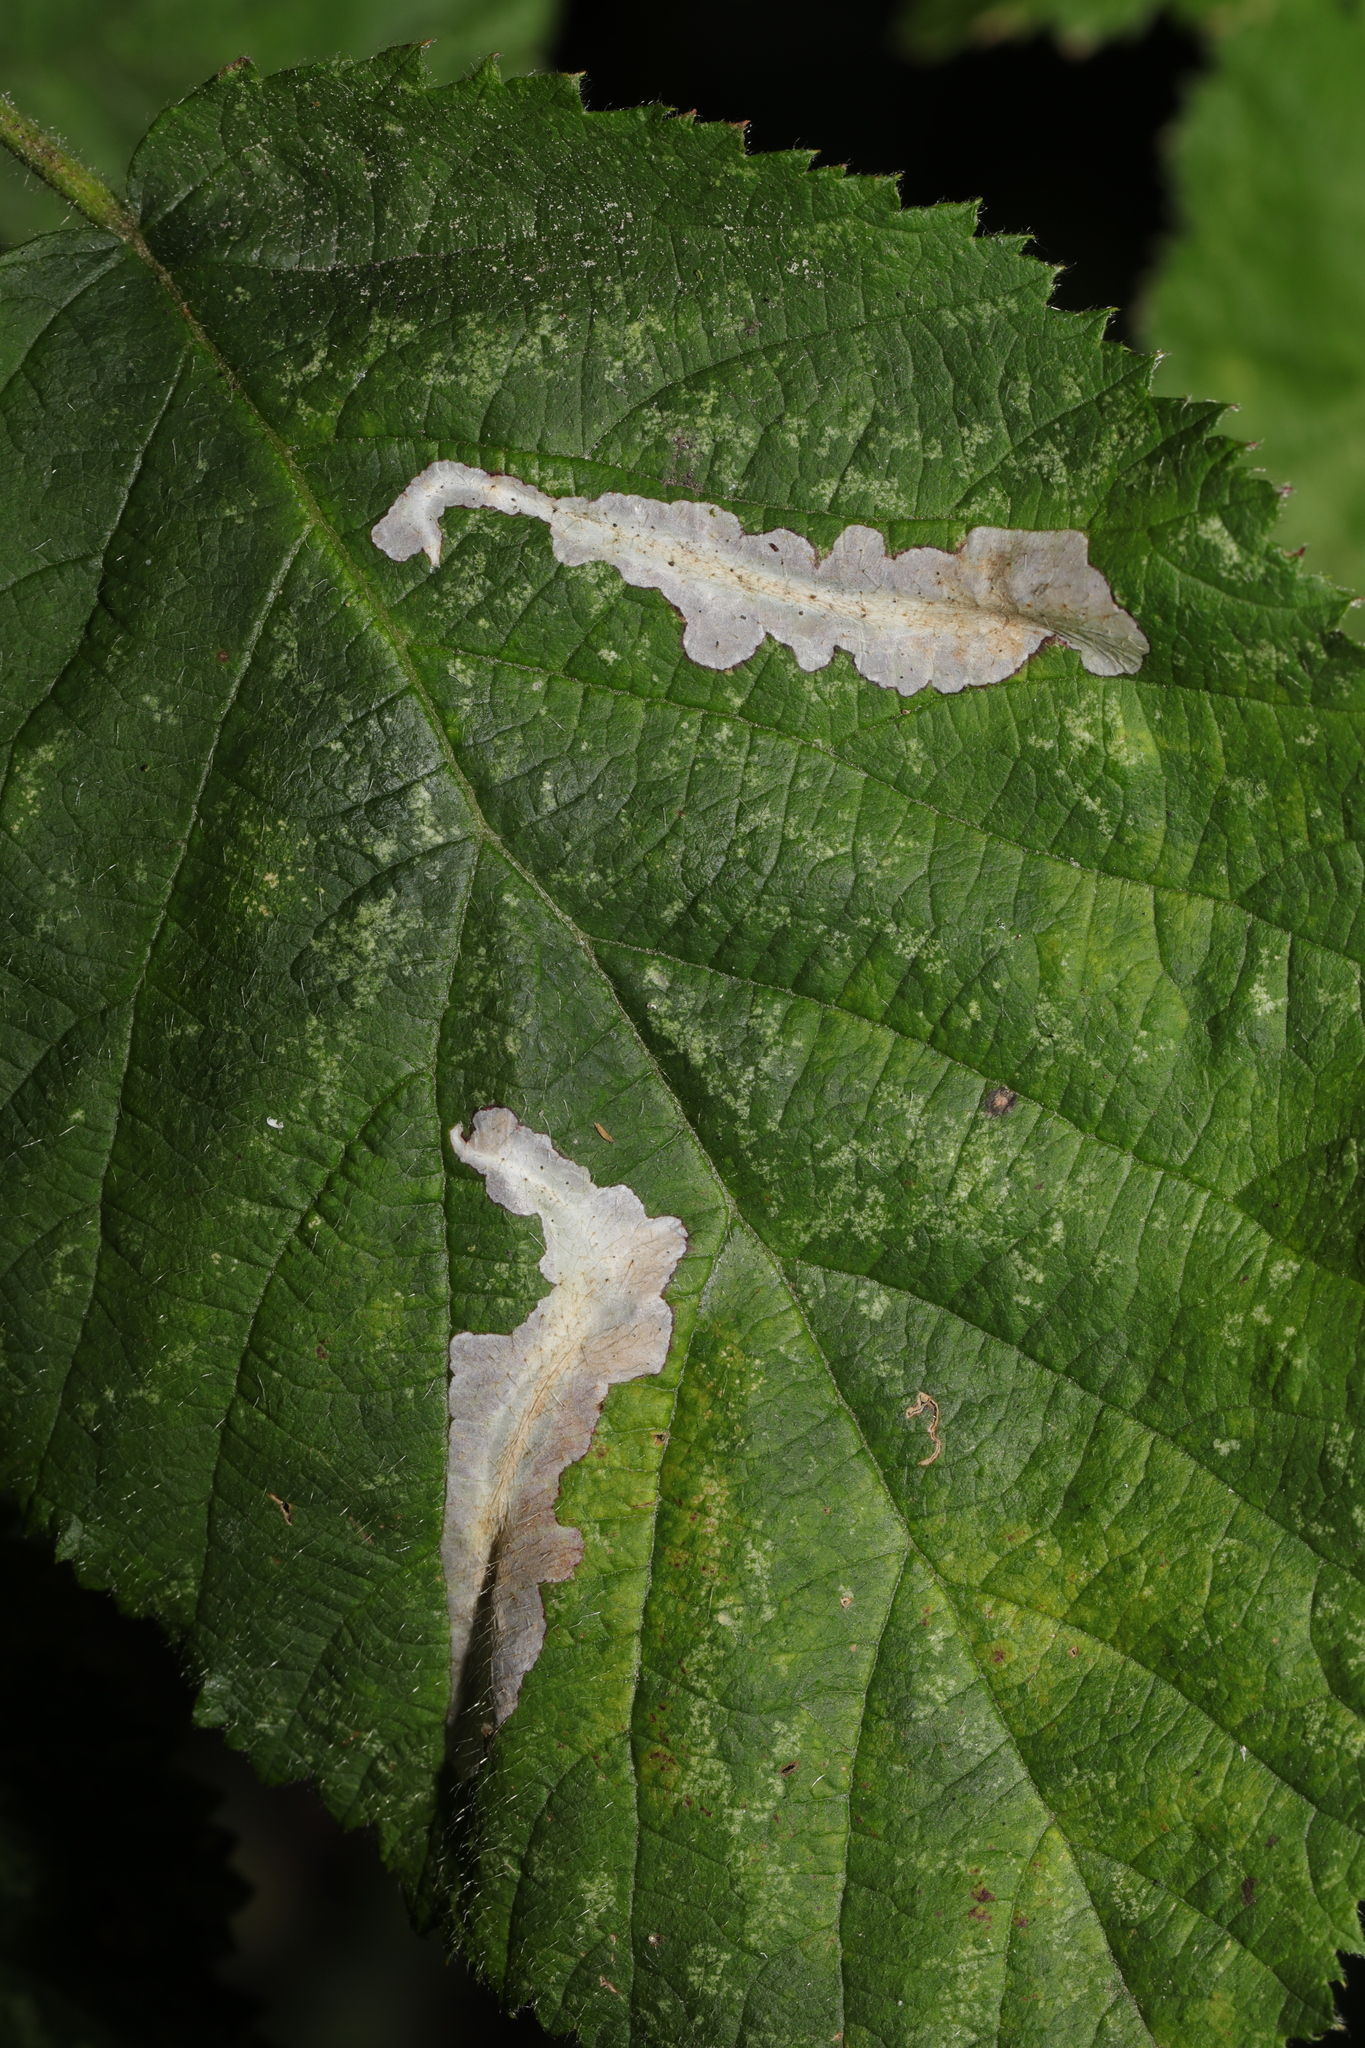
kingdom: Animalia
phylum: Arthropoda
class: Insecta
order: Lepidoptera
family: Tischeriidae
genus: Coptotriche
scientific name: Coptotriche marginea
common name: Bordered carl
